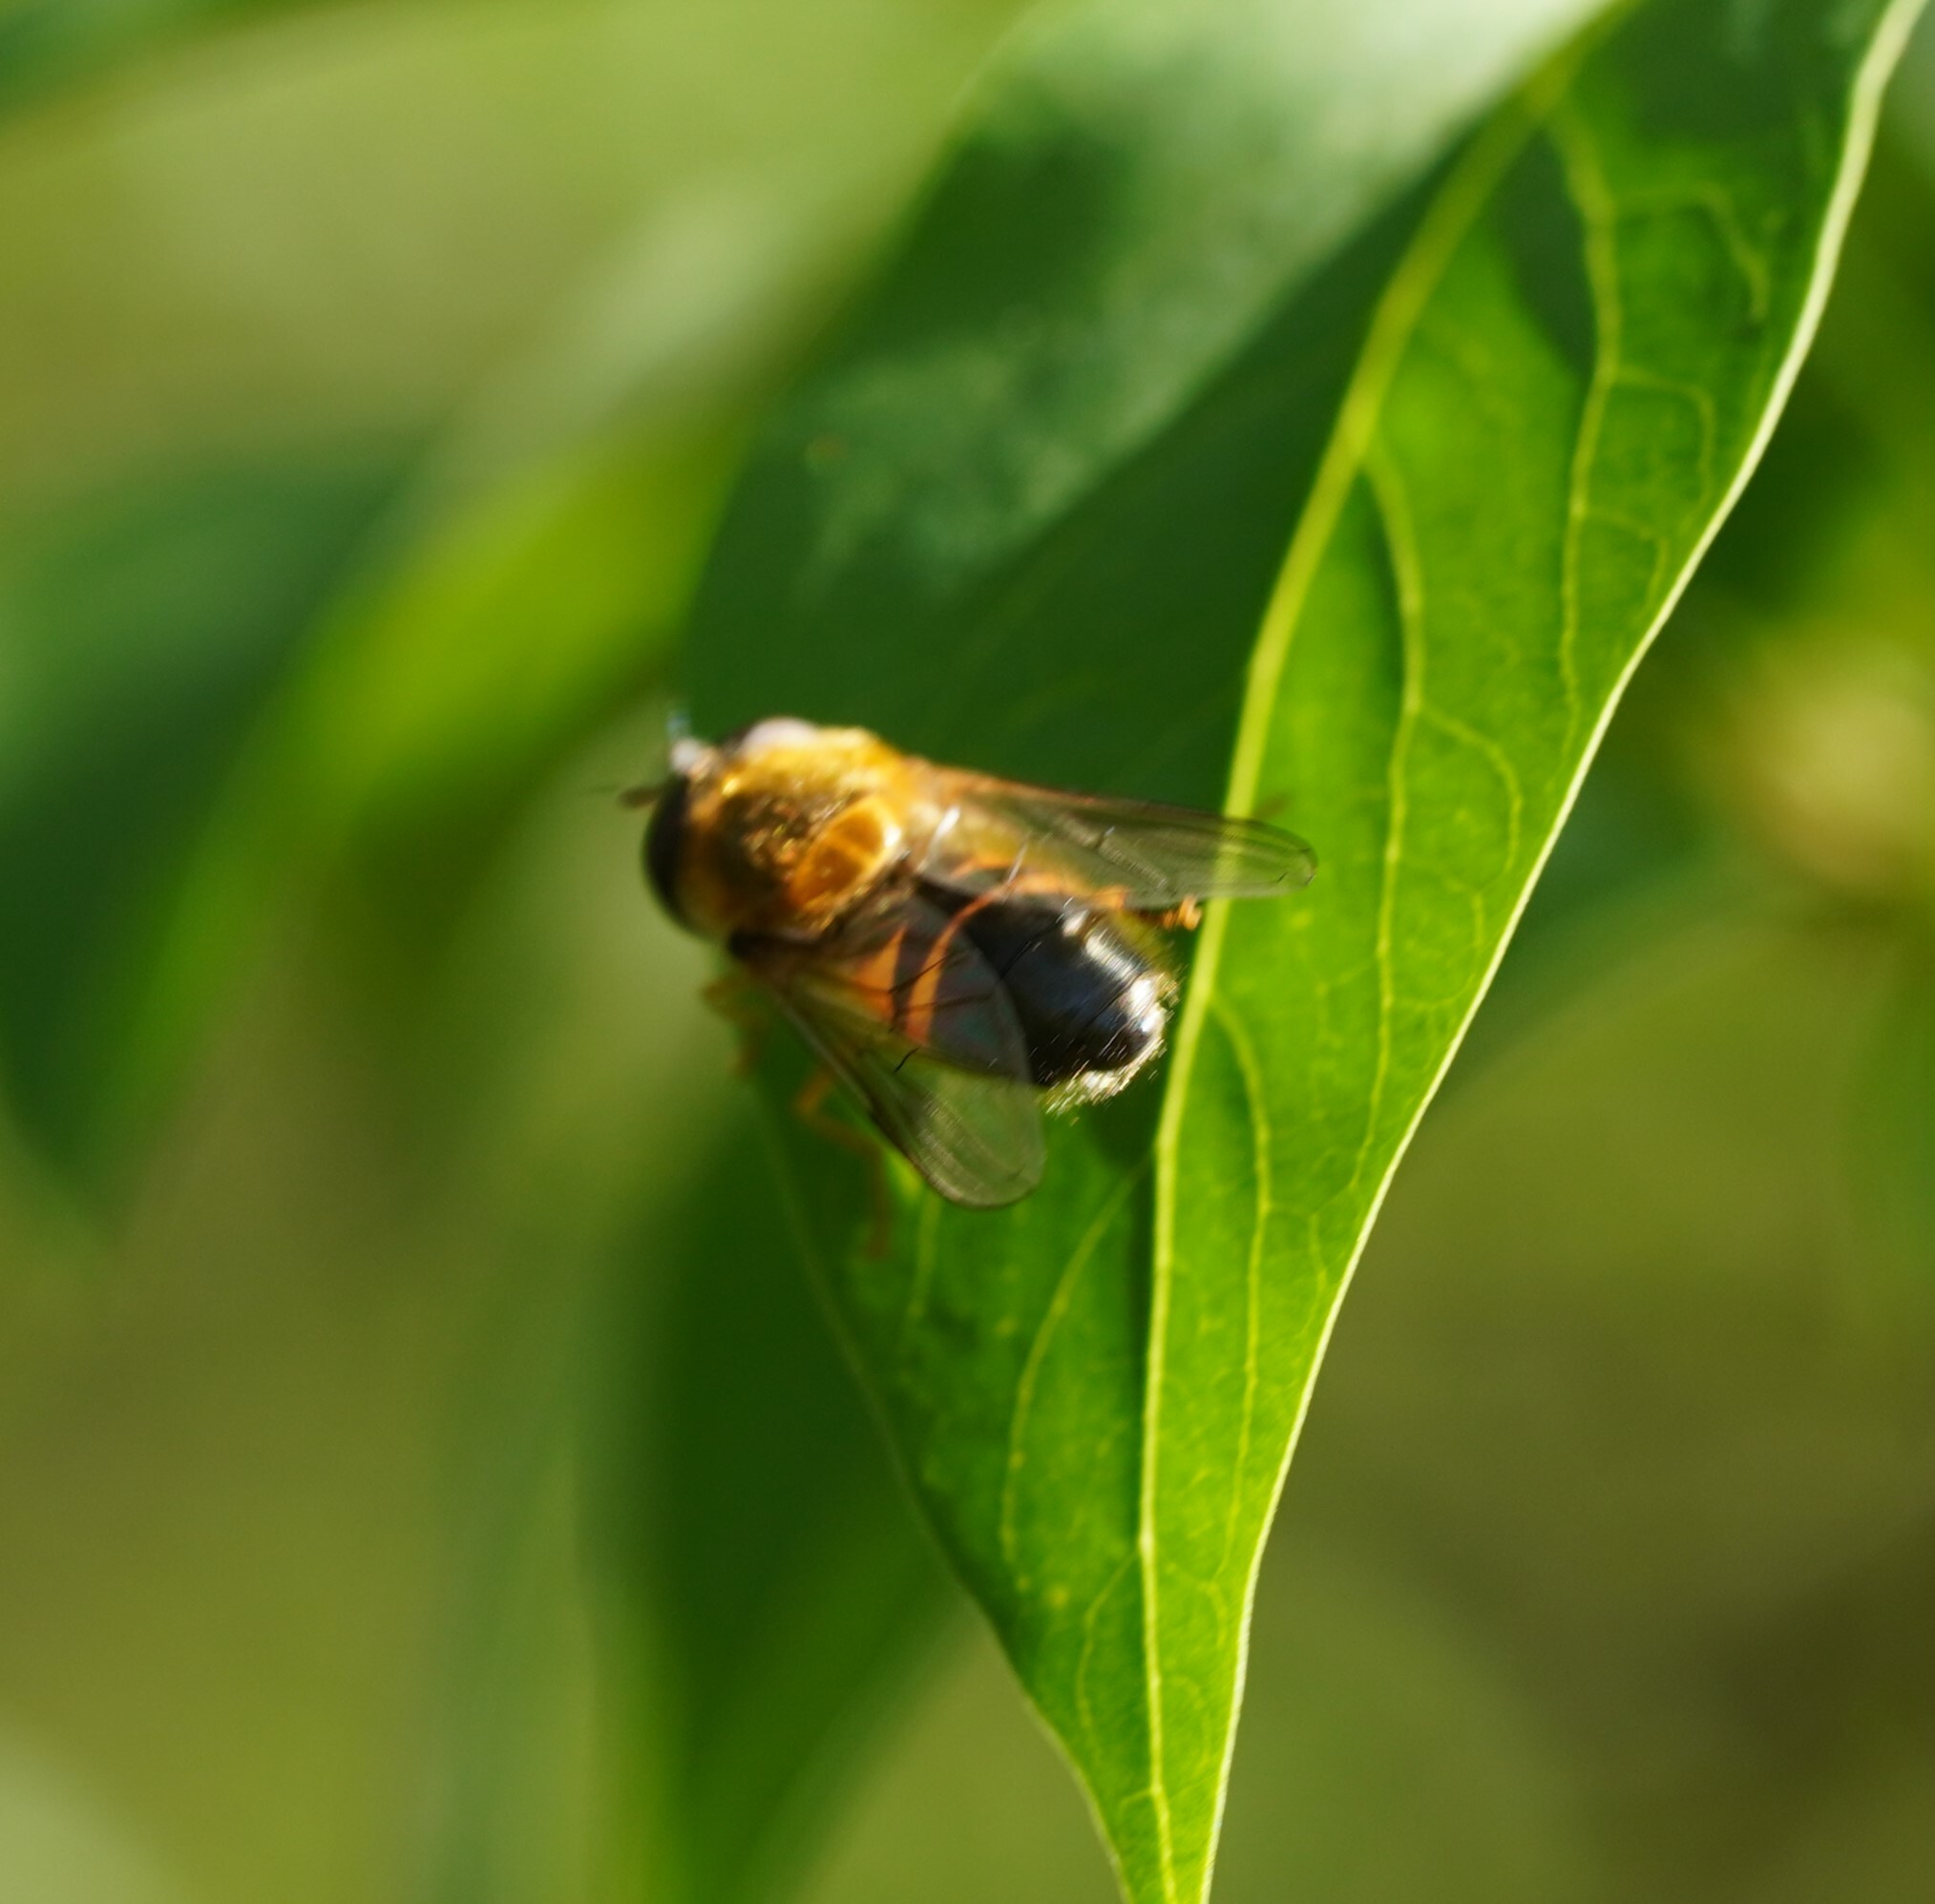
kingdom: Animalia
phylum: Arthropoda
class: Insecta
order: Diptera
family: Syrphidae
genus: Epistrophe
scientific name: Epistrophe eligans
